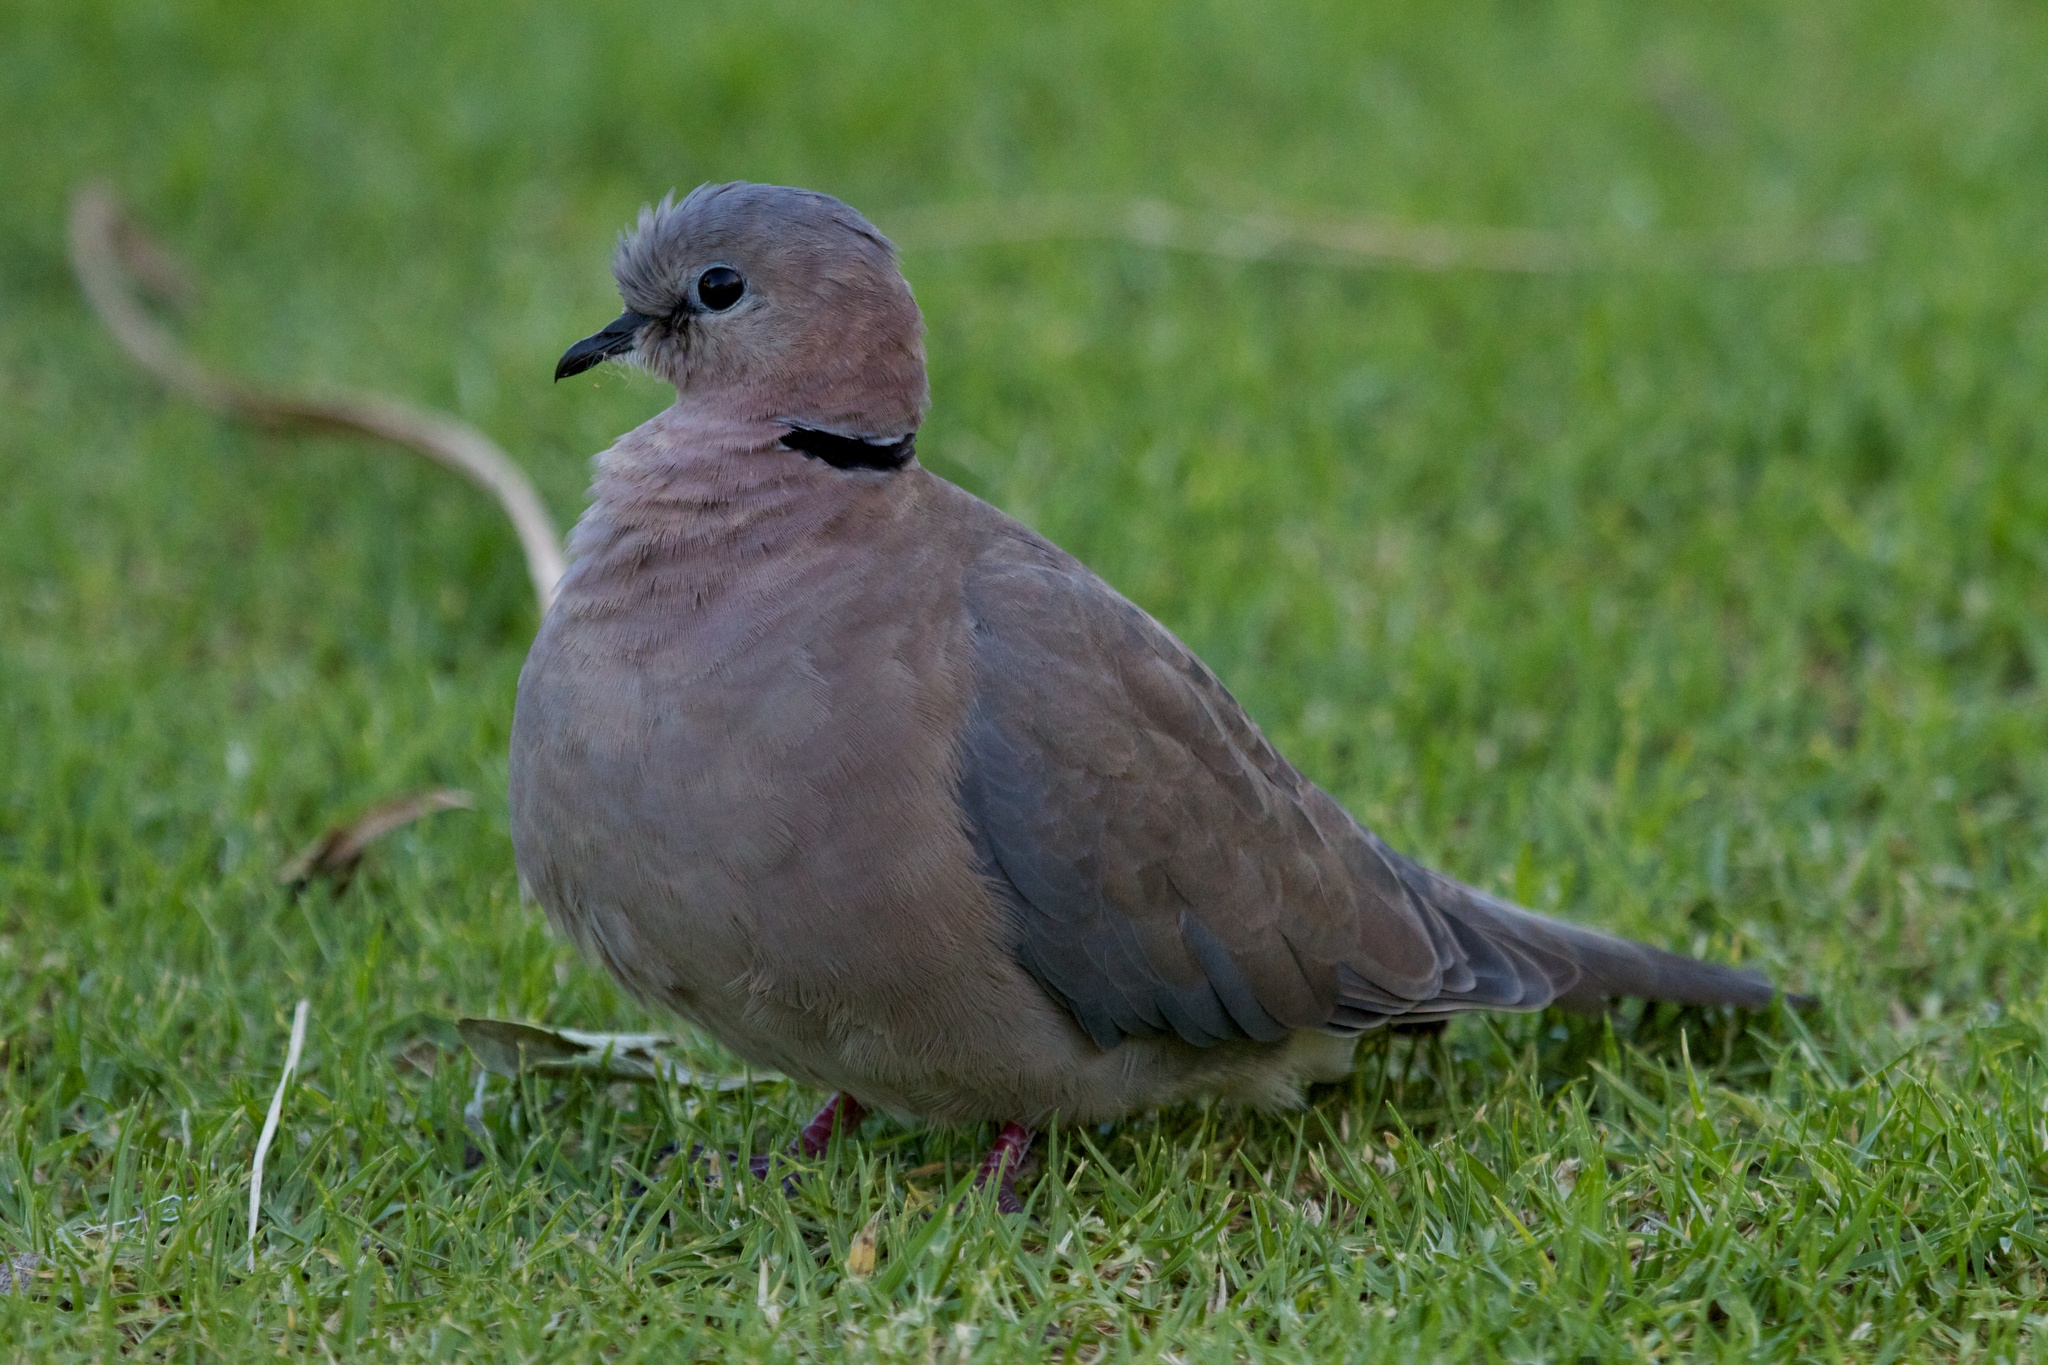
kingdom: Animalia
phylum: Chordata
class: Aves
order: Columbiformes
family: Columbidae
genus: Streptopelia
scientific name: Streptopelia capicola
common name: Ring-necked dove
